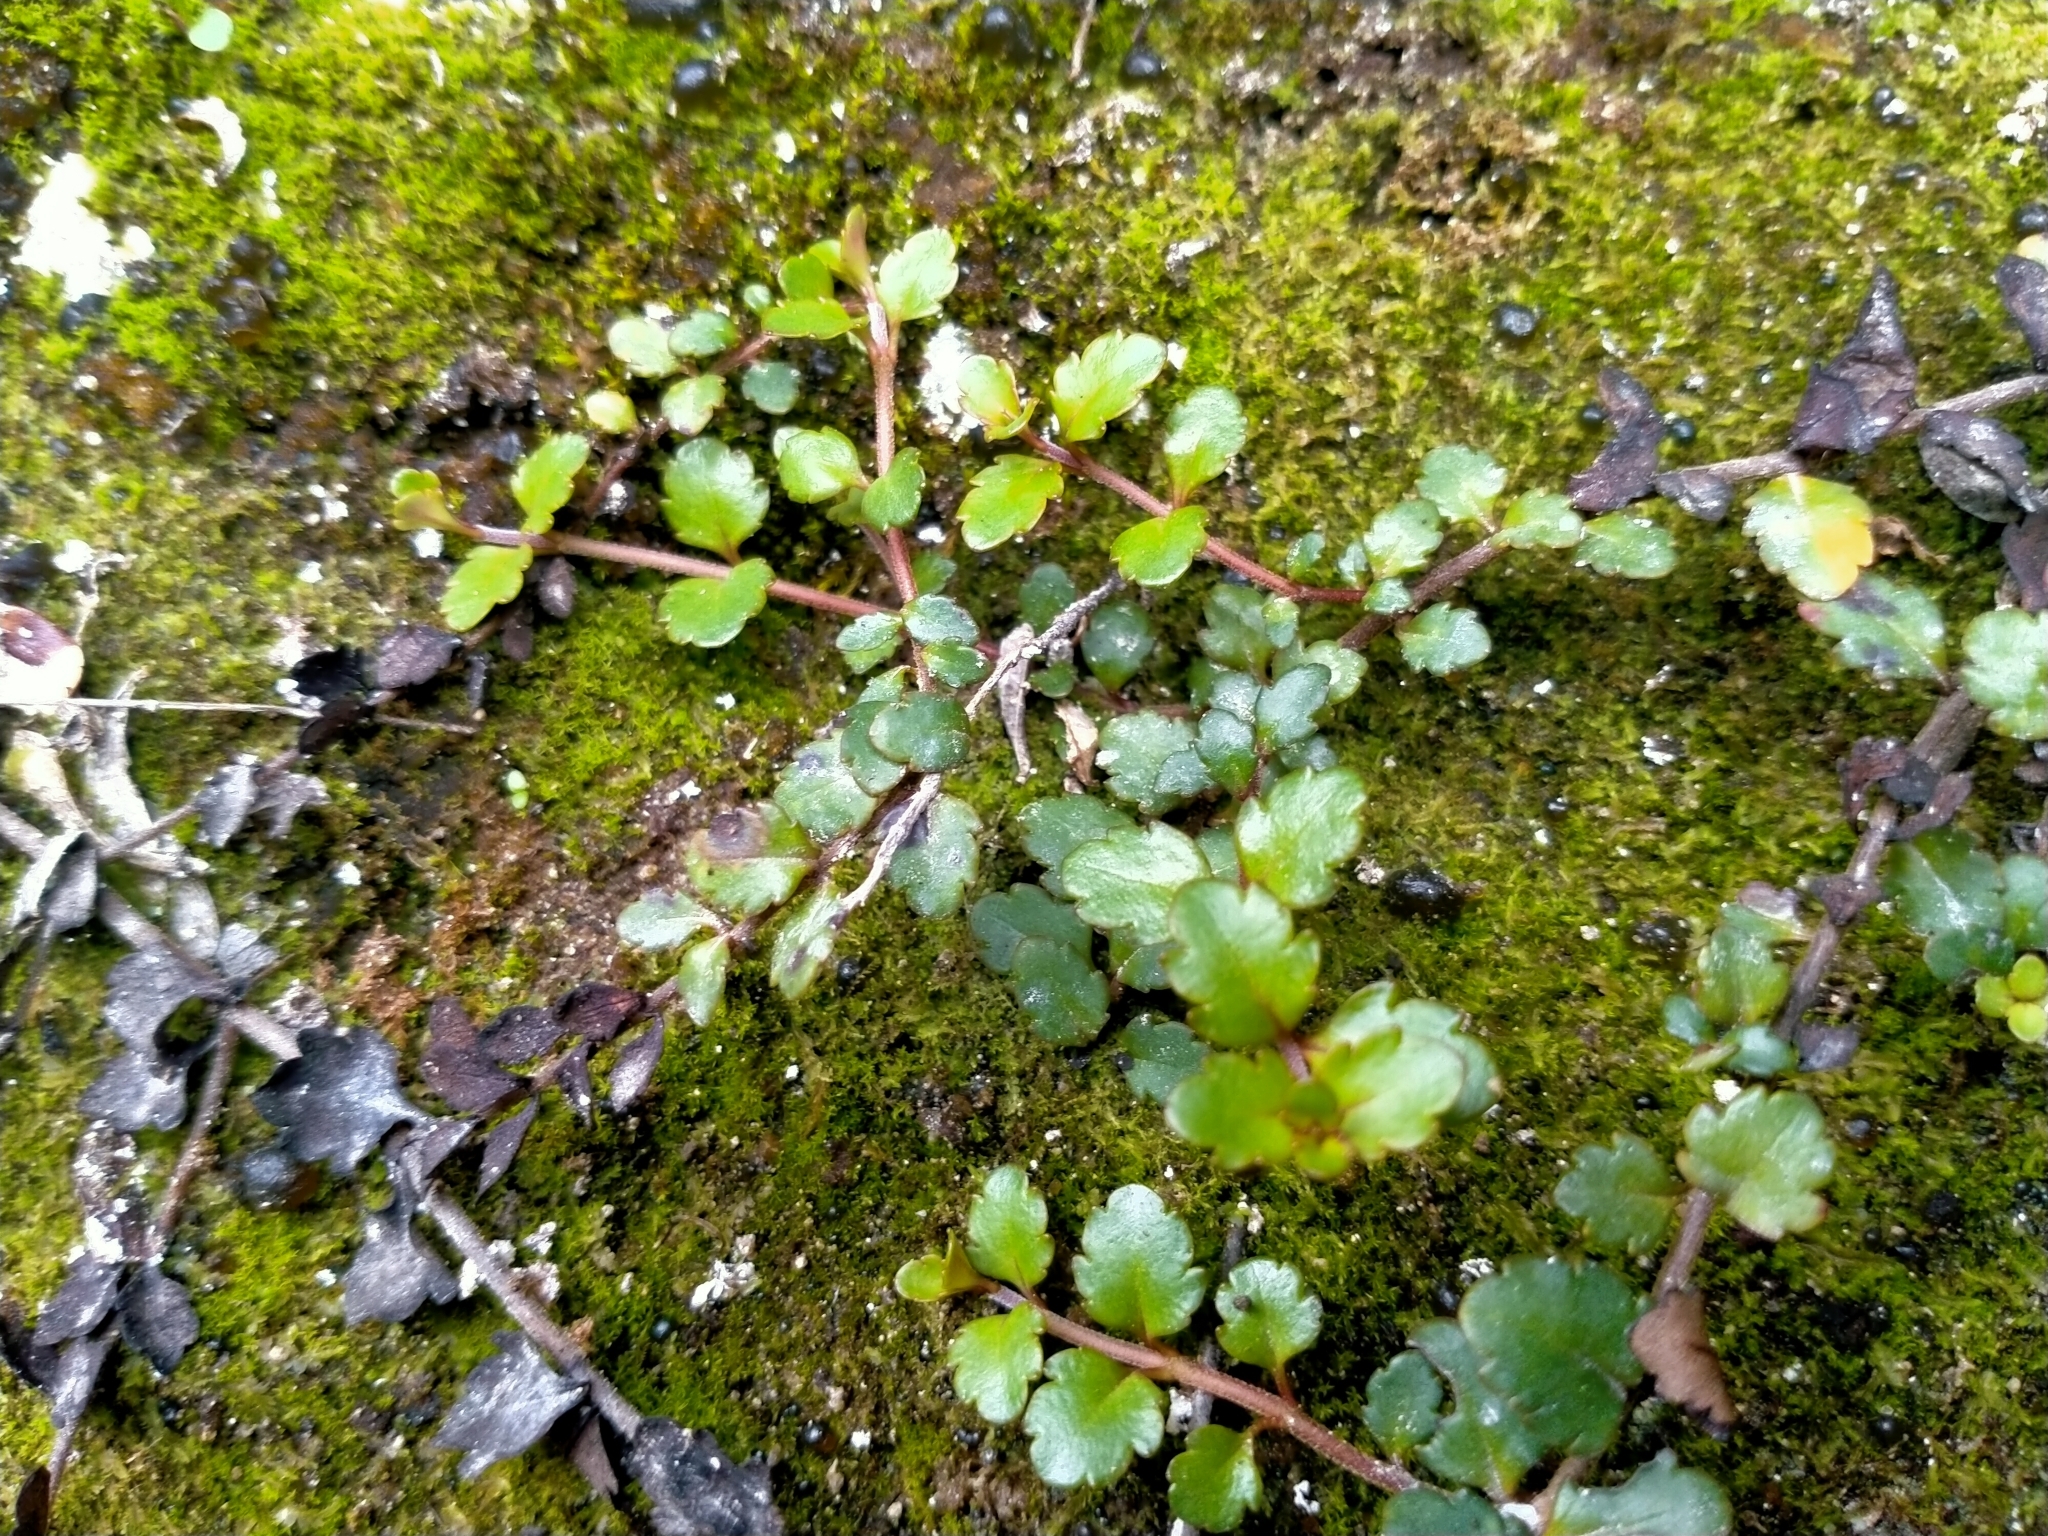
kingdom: Plantae
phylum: Tracheophyta
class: Magnoliopsida
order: Lamiales
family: Plantaginaceae
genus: Veronica
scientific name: Veronica lyallii
